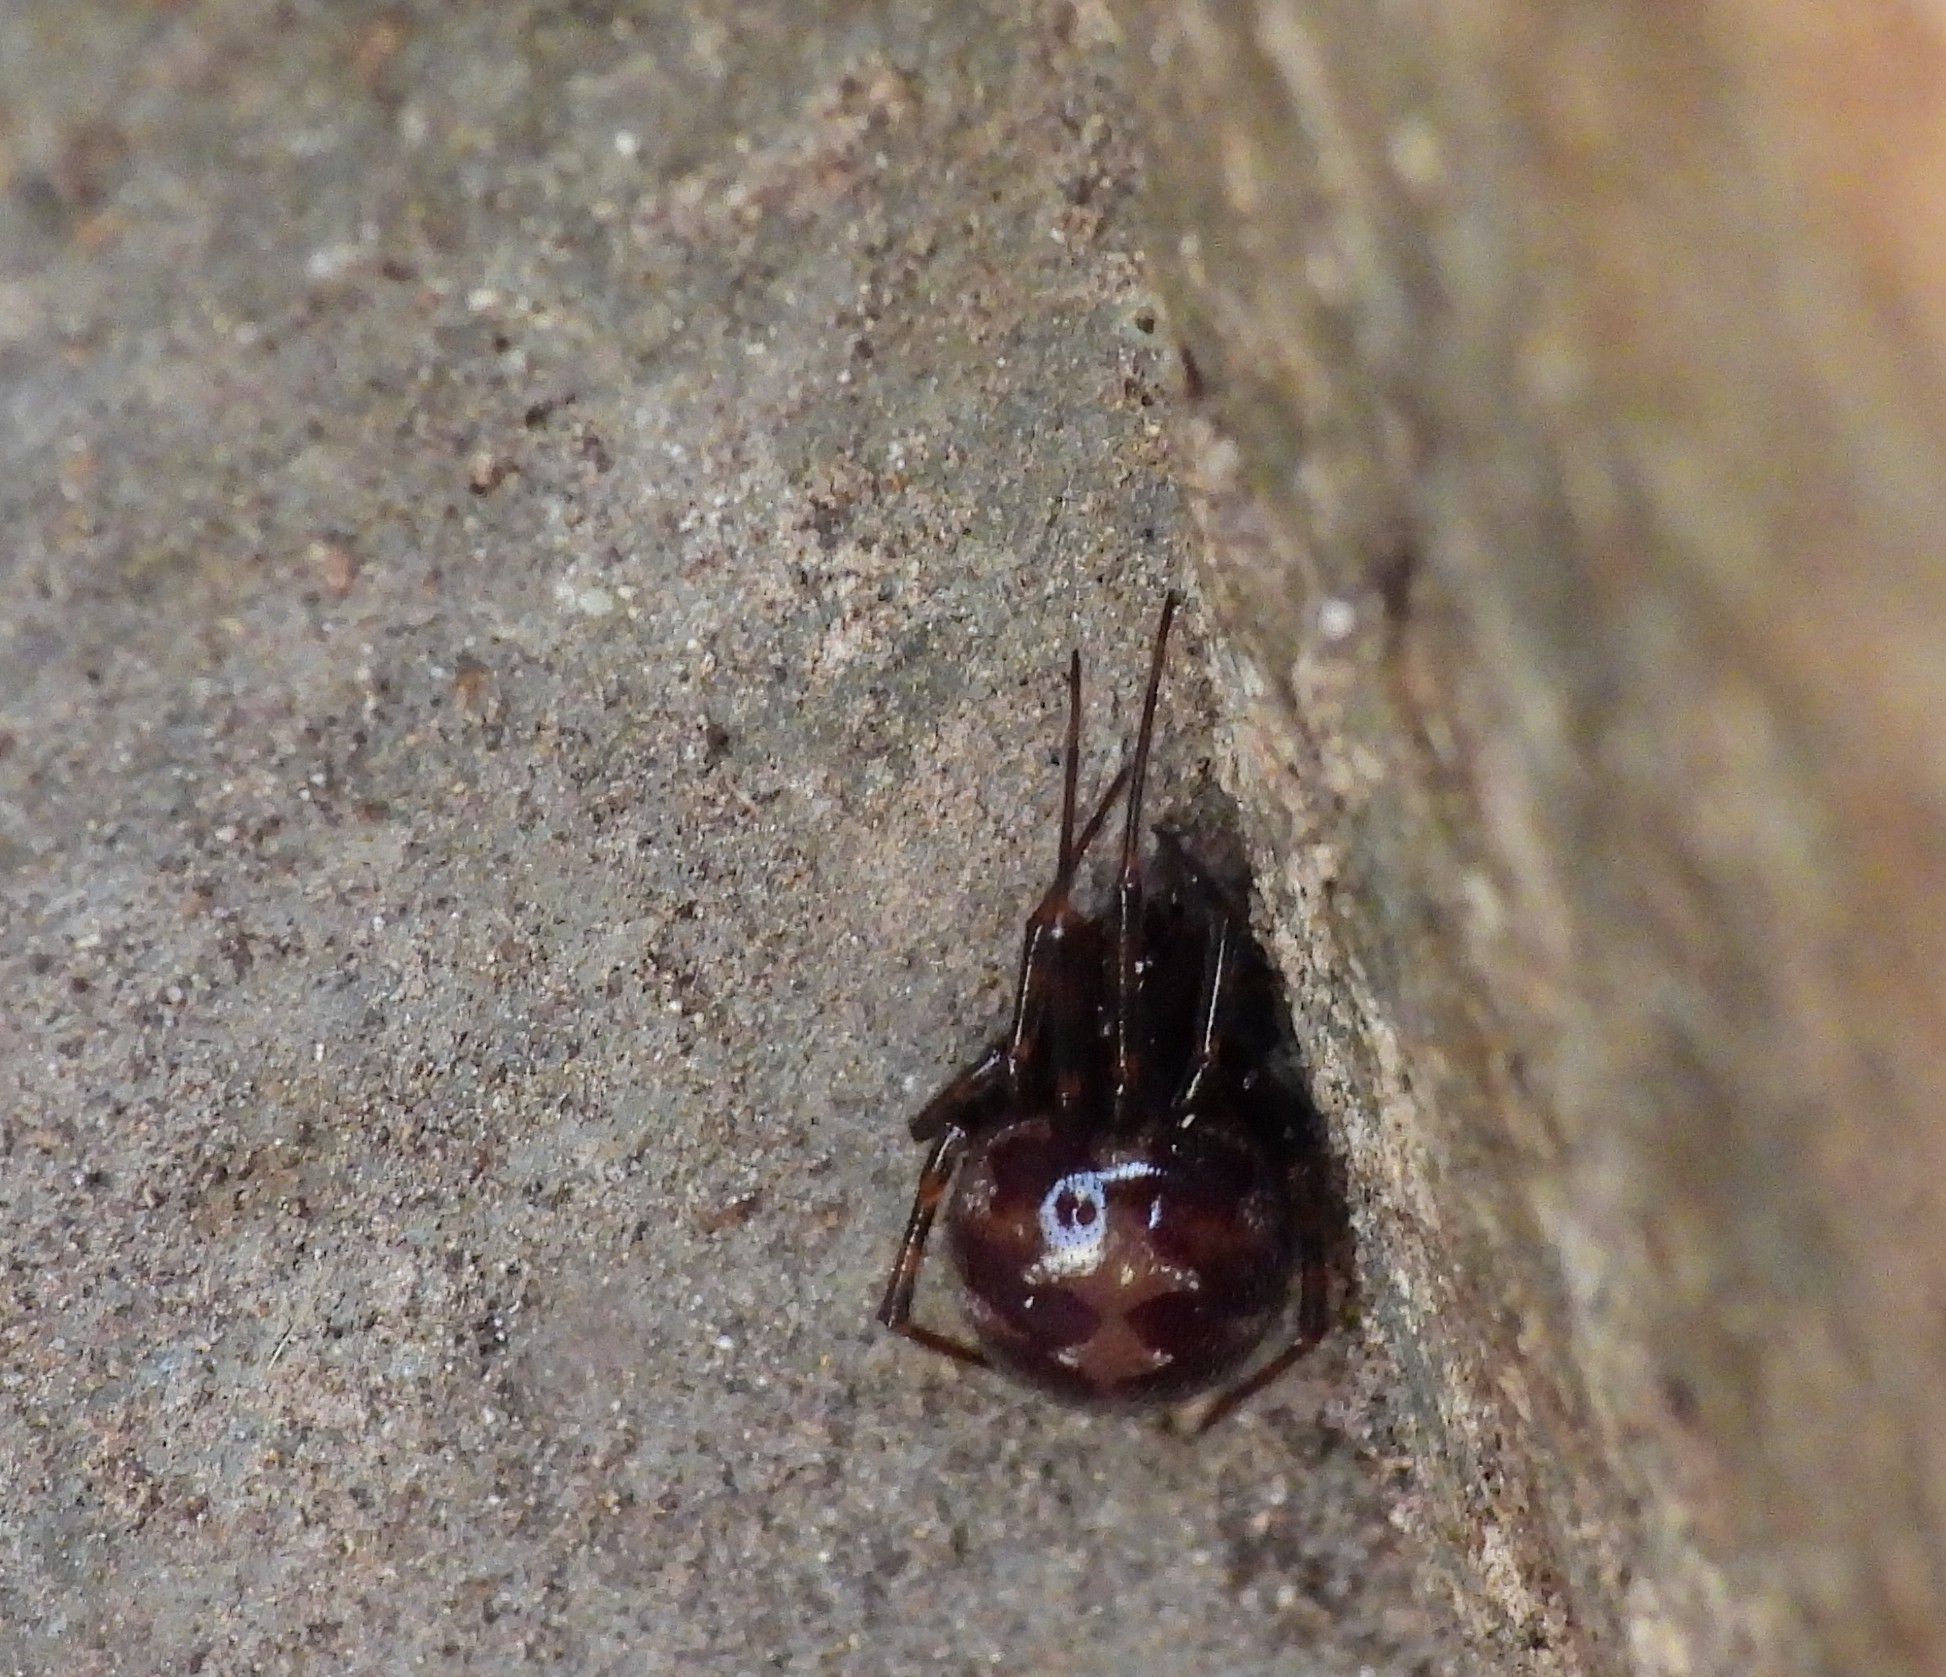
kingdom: Animalia
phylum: Arthropoda
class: Arachnida
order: Araneae
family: Theridiidae
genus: Steatoda
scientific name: Steatoda triangulosa
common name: Triangulate bud spider
